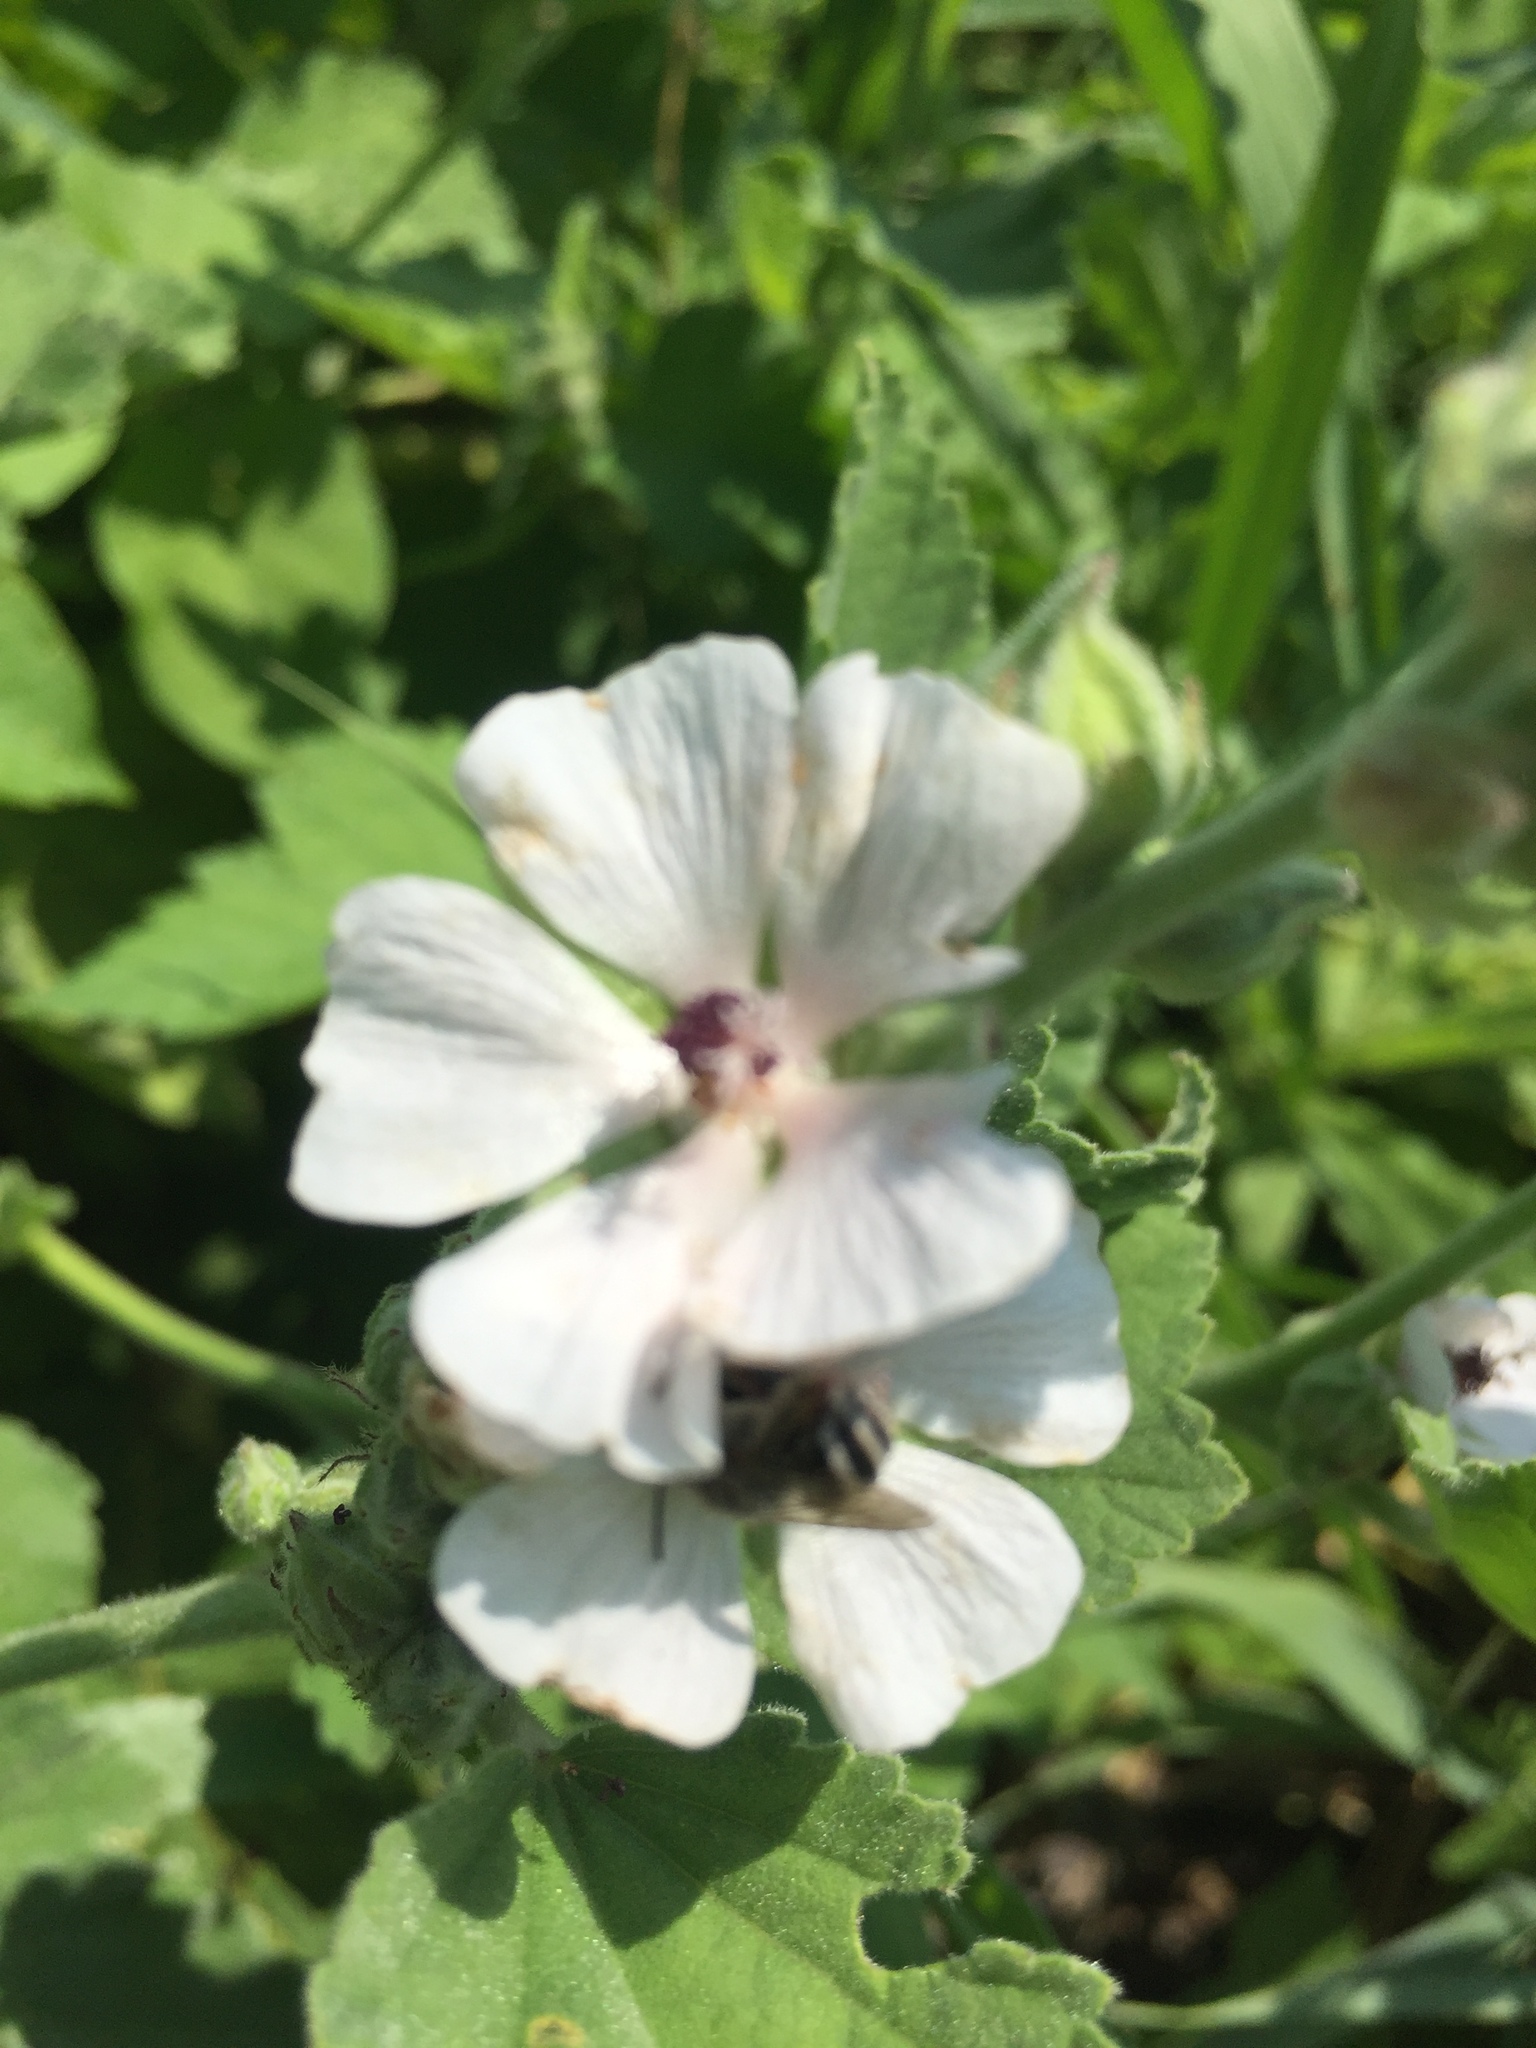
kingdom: Plantae
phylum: Tracheophyta
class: Magnoliopsida
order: Malvales
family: Malvaceae
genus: Althaea
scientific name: Althaea officinalis
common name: Marsh-mallow
